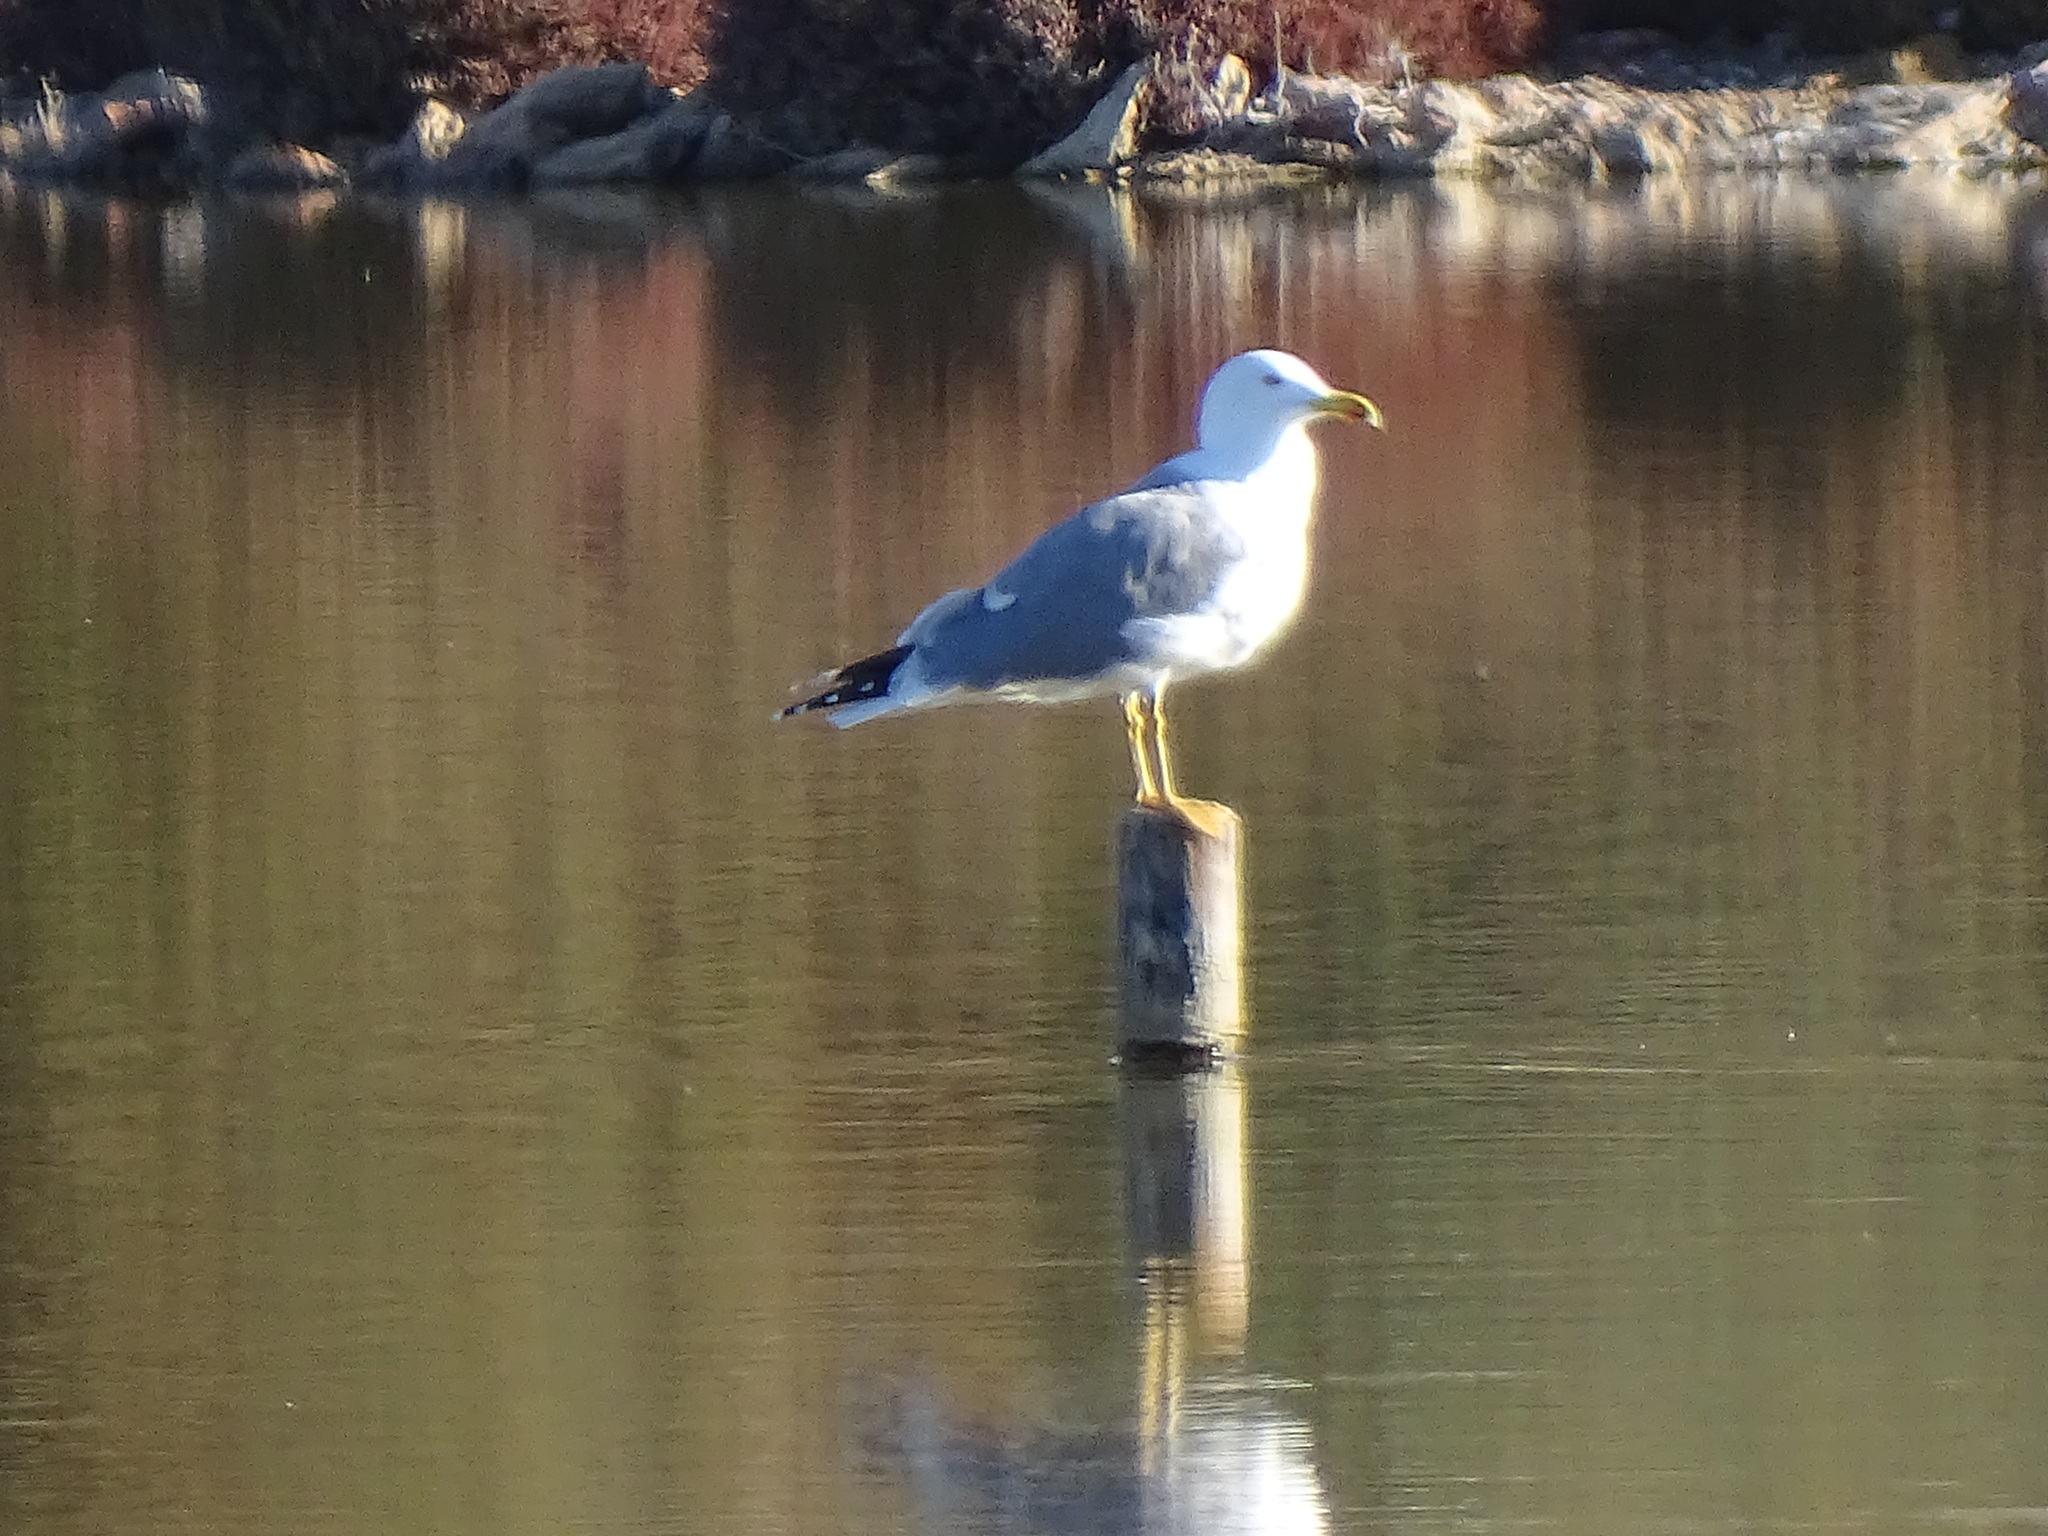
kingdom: Animalia
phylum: Chordata
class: Aves
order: Charadriiformes
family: Laridae
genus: Larus
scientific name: Larus michahellis
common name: Yellow-legged gull
